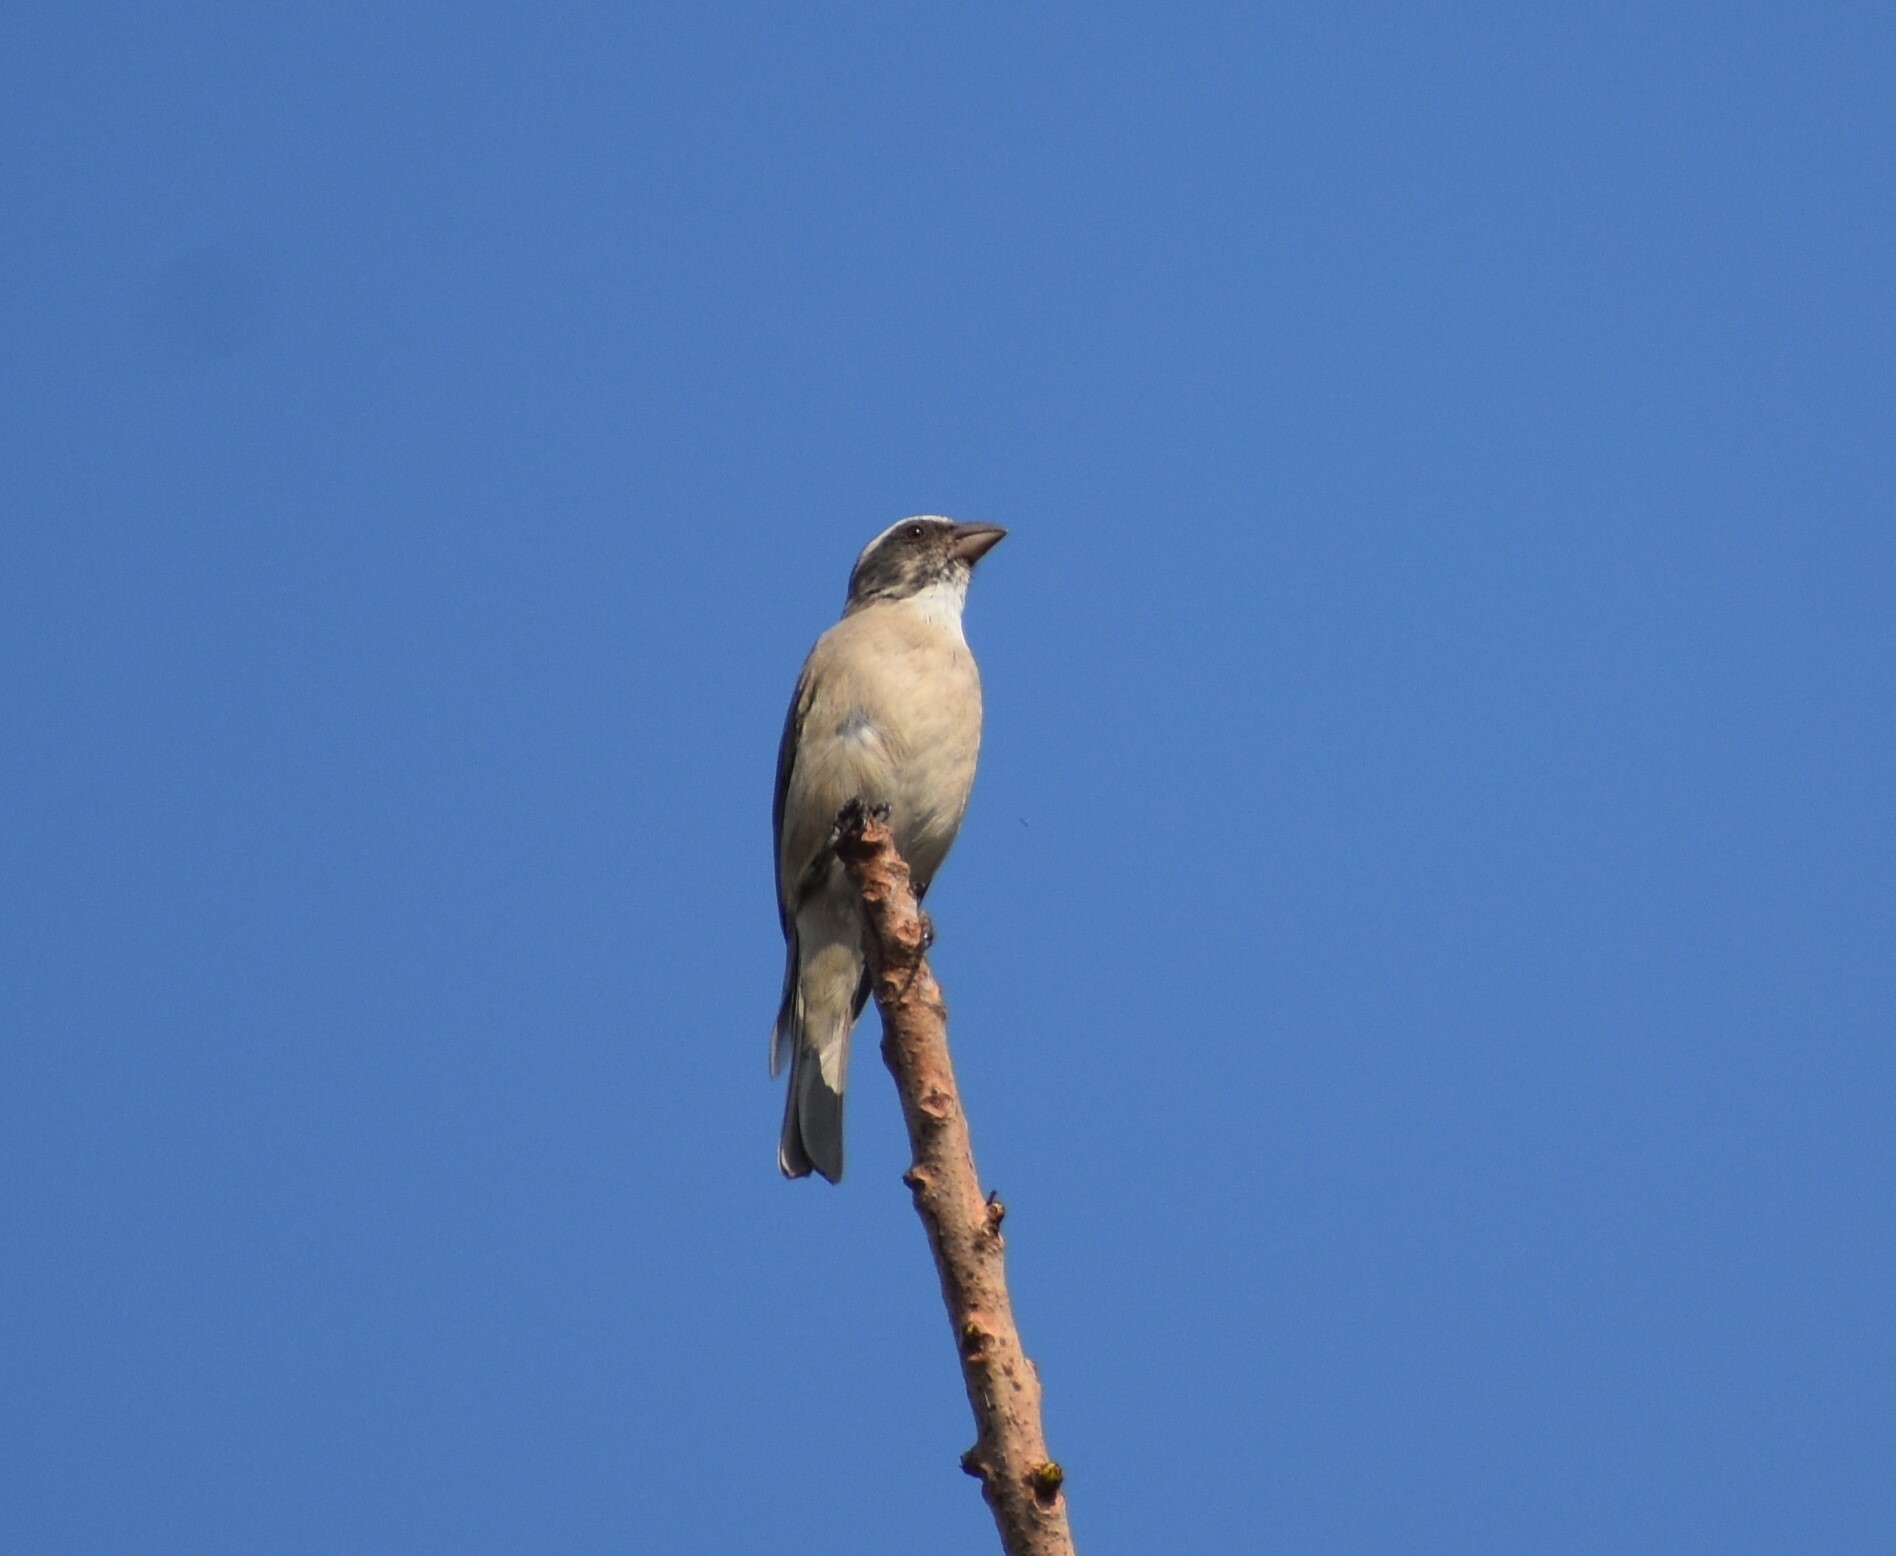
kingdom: Animalia
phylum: Chordata
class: Aves
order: Passeriformes
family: Fringillidae
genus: Crithagra
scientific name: Crithagra gularis
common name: Streaky-headed seedeater
